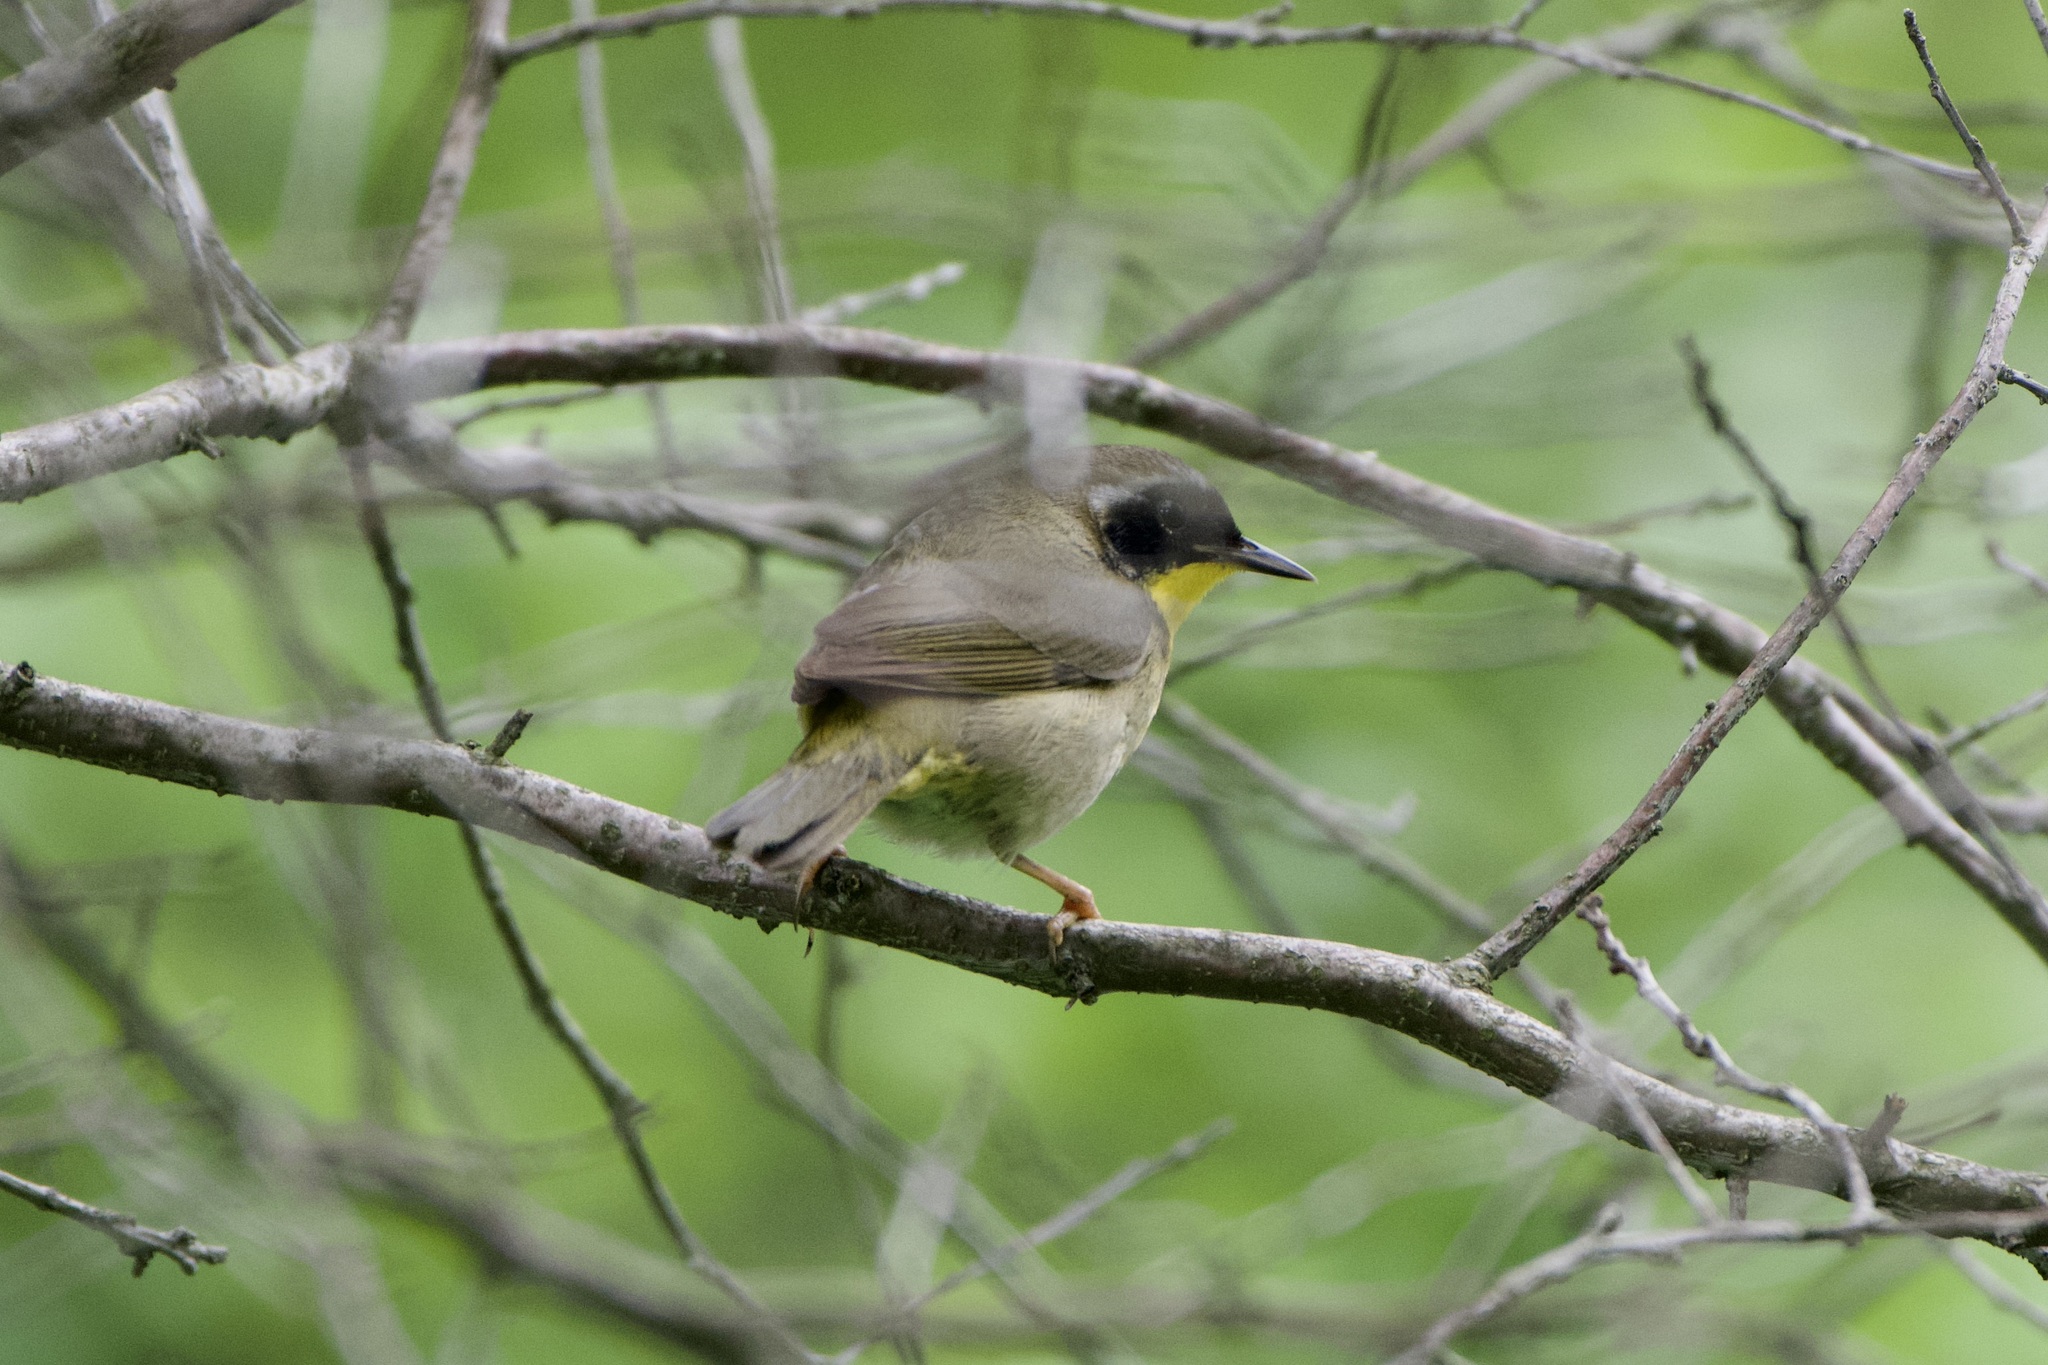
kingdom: Animalia
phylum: Chordata
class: Aves
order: Passeriformes
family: Parulidae
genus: Geothlypis
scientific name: Geothlypis trichas
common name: Common yellowthroat
